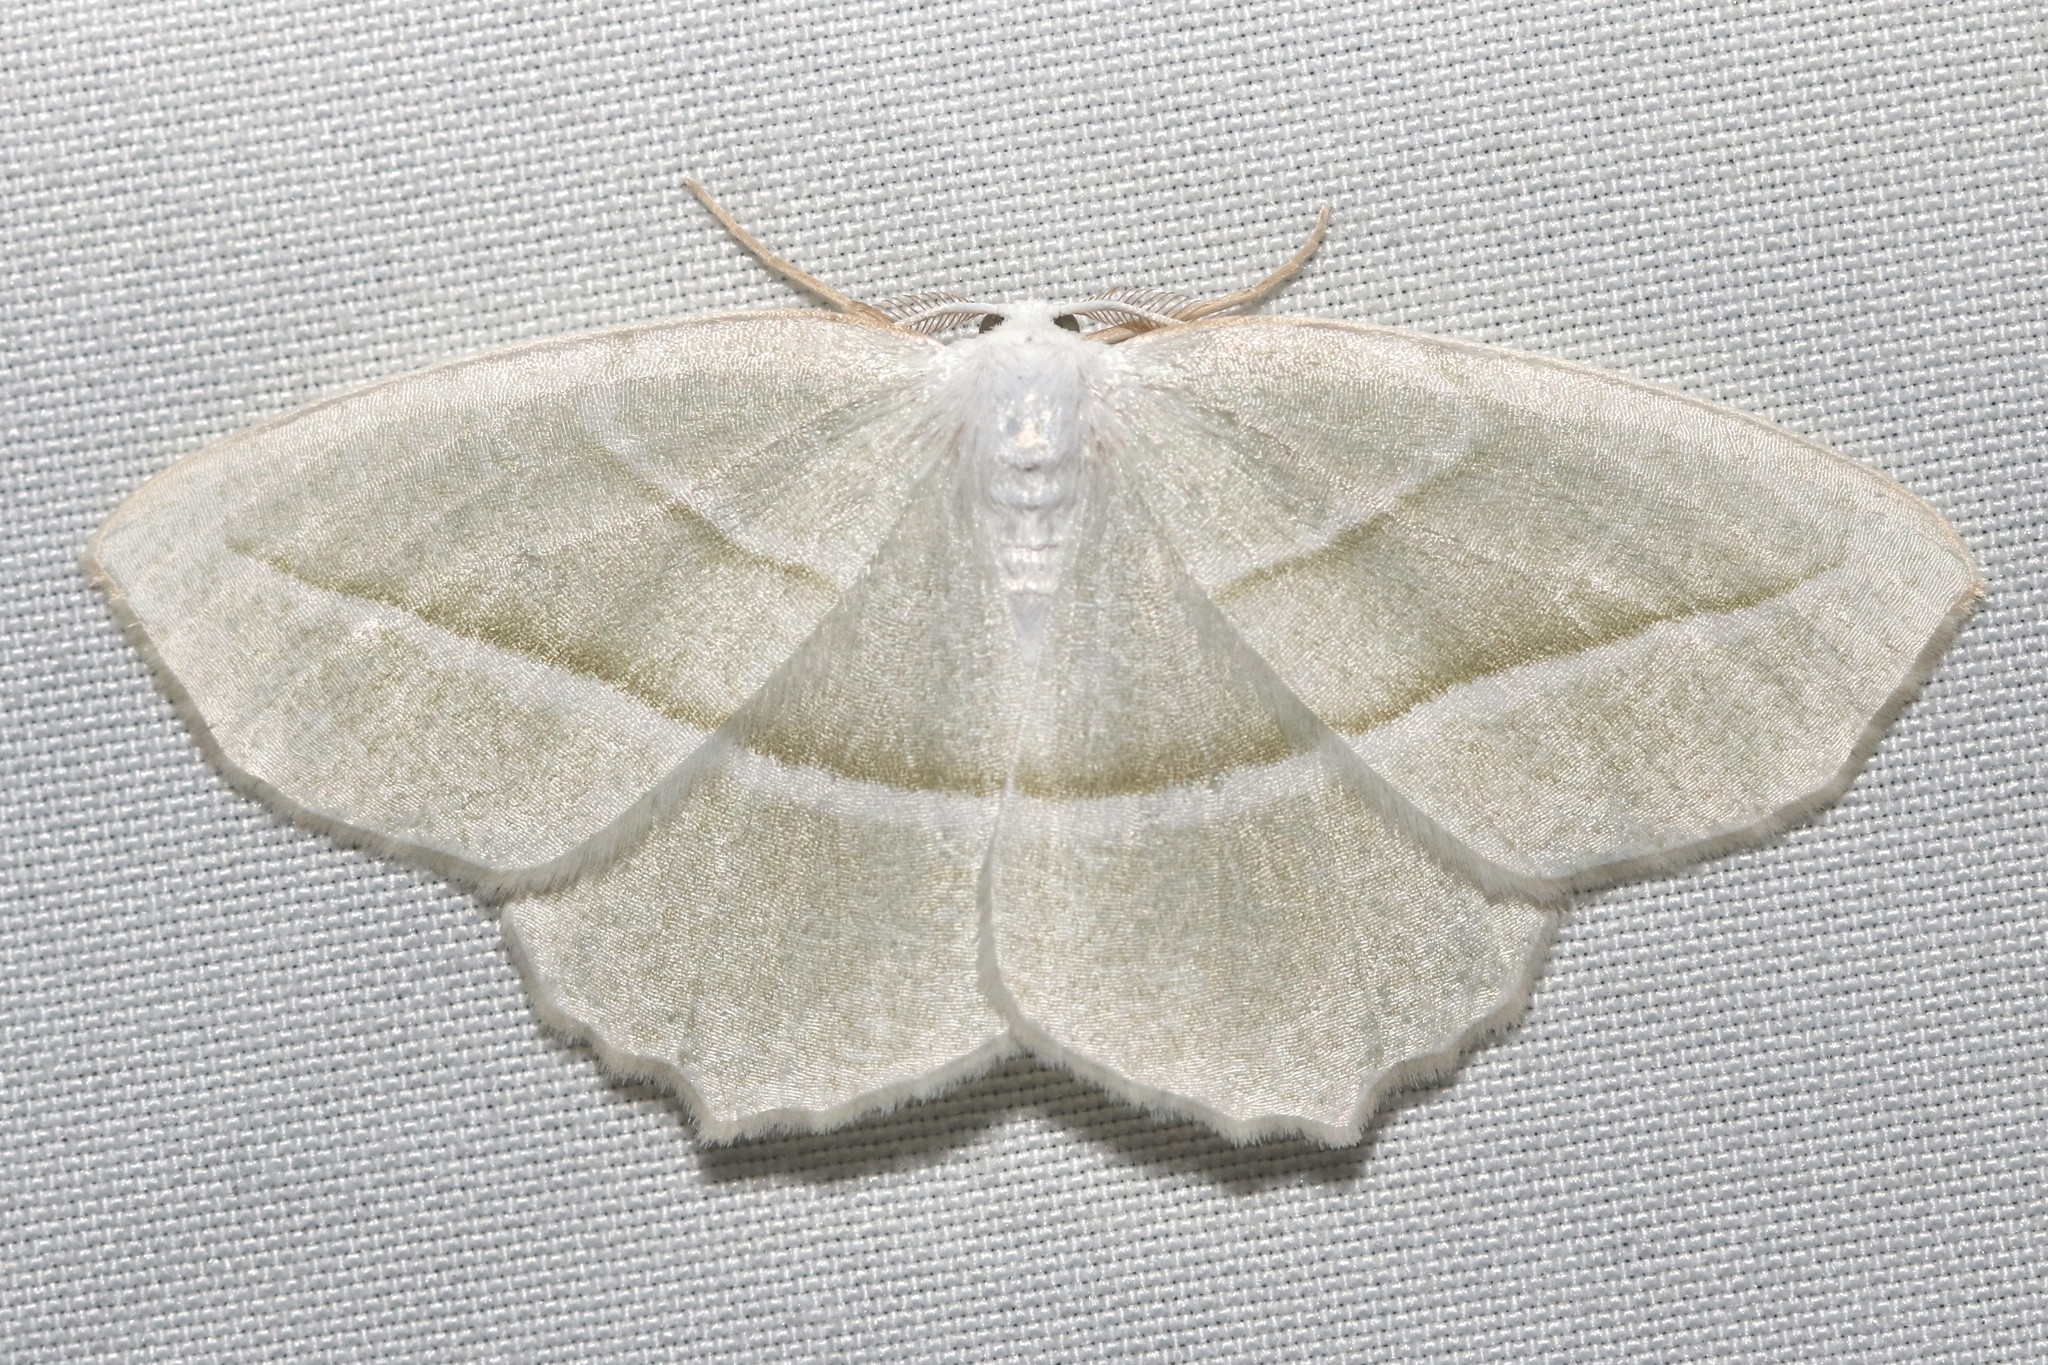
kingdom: Animalia
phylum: Arthropoda
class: Insecta
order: Lepidoptera
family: Geometridae
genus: Campaea
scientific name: Campaea perlata
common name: Fringed looper
